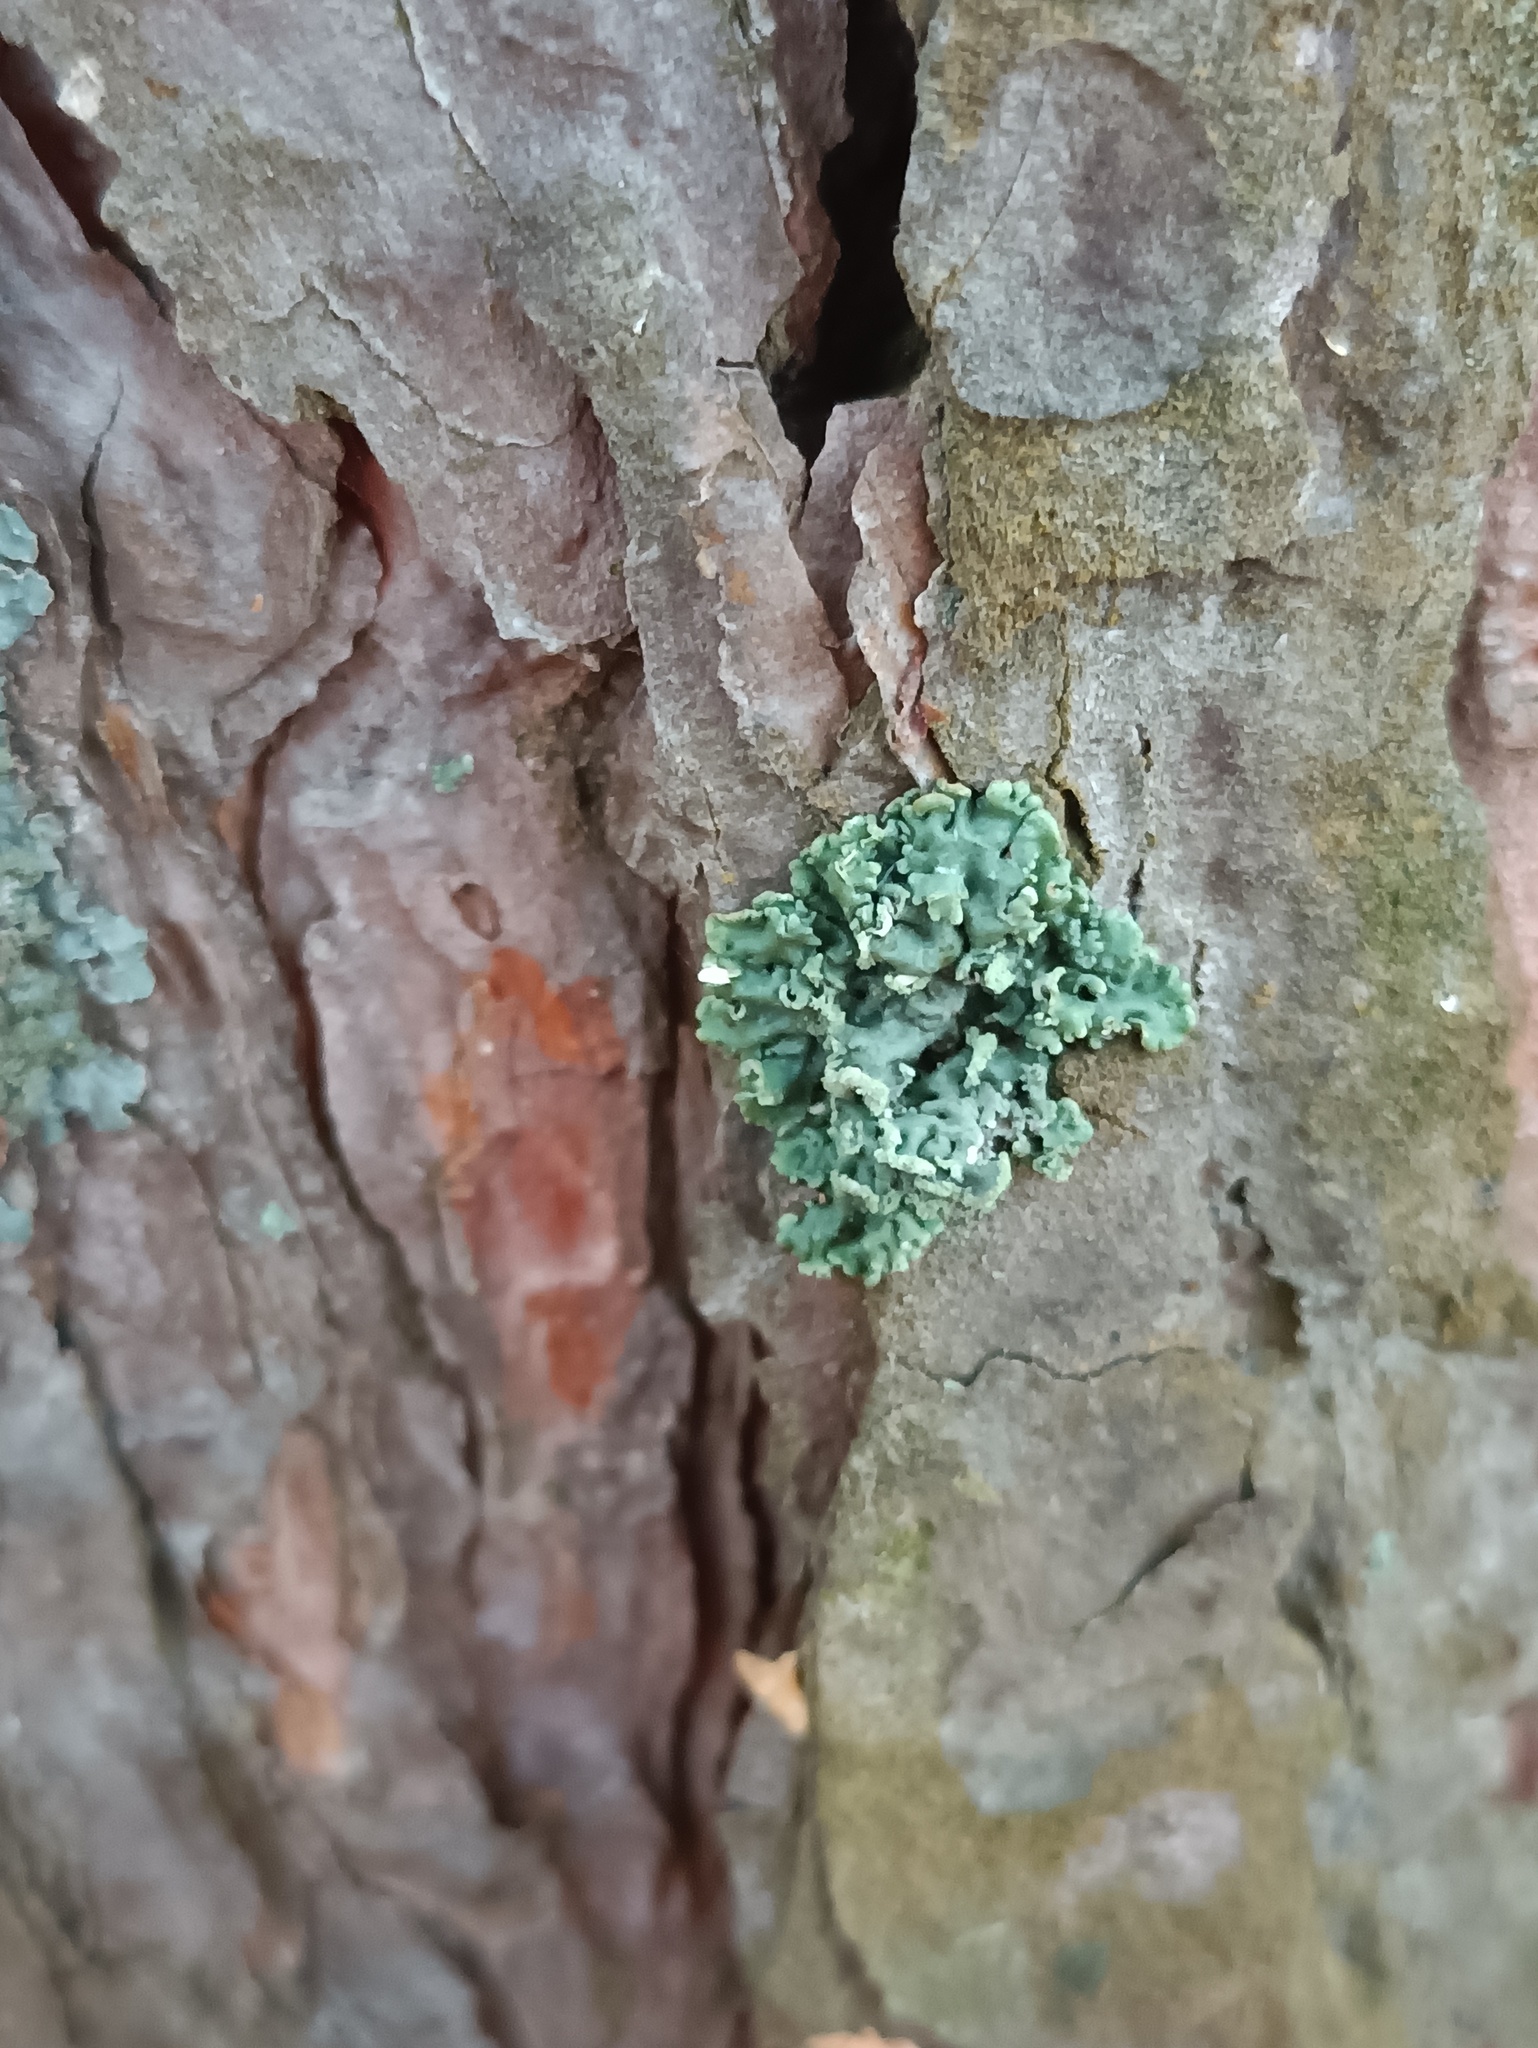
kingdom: Fungi
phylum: Ascomycota
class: Lecanoromycetes
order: Lecanorales
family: Parmeliaceae
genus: Hypogymnia
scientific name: Hypogymnia physodes
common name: Dark crottle
